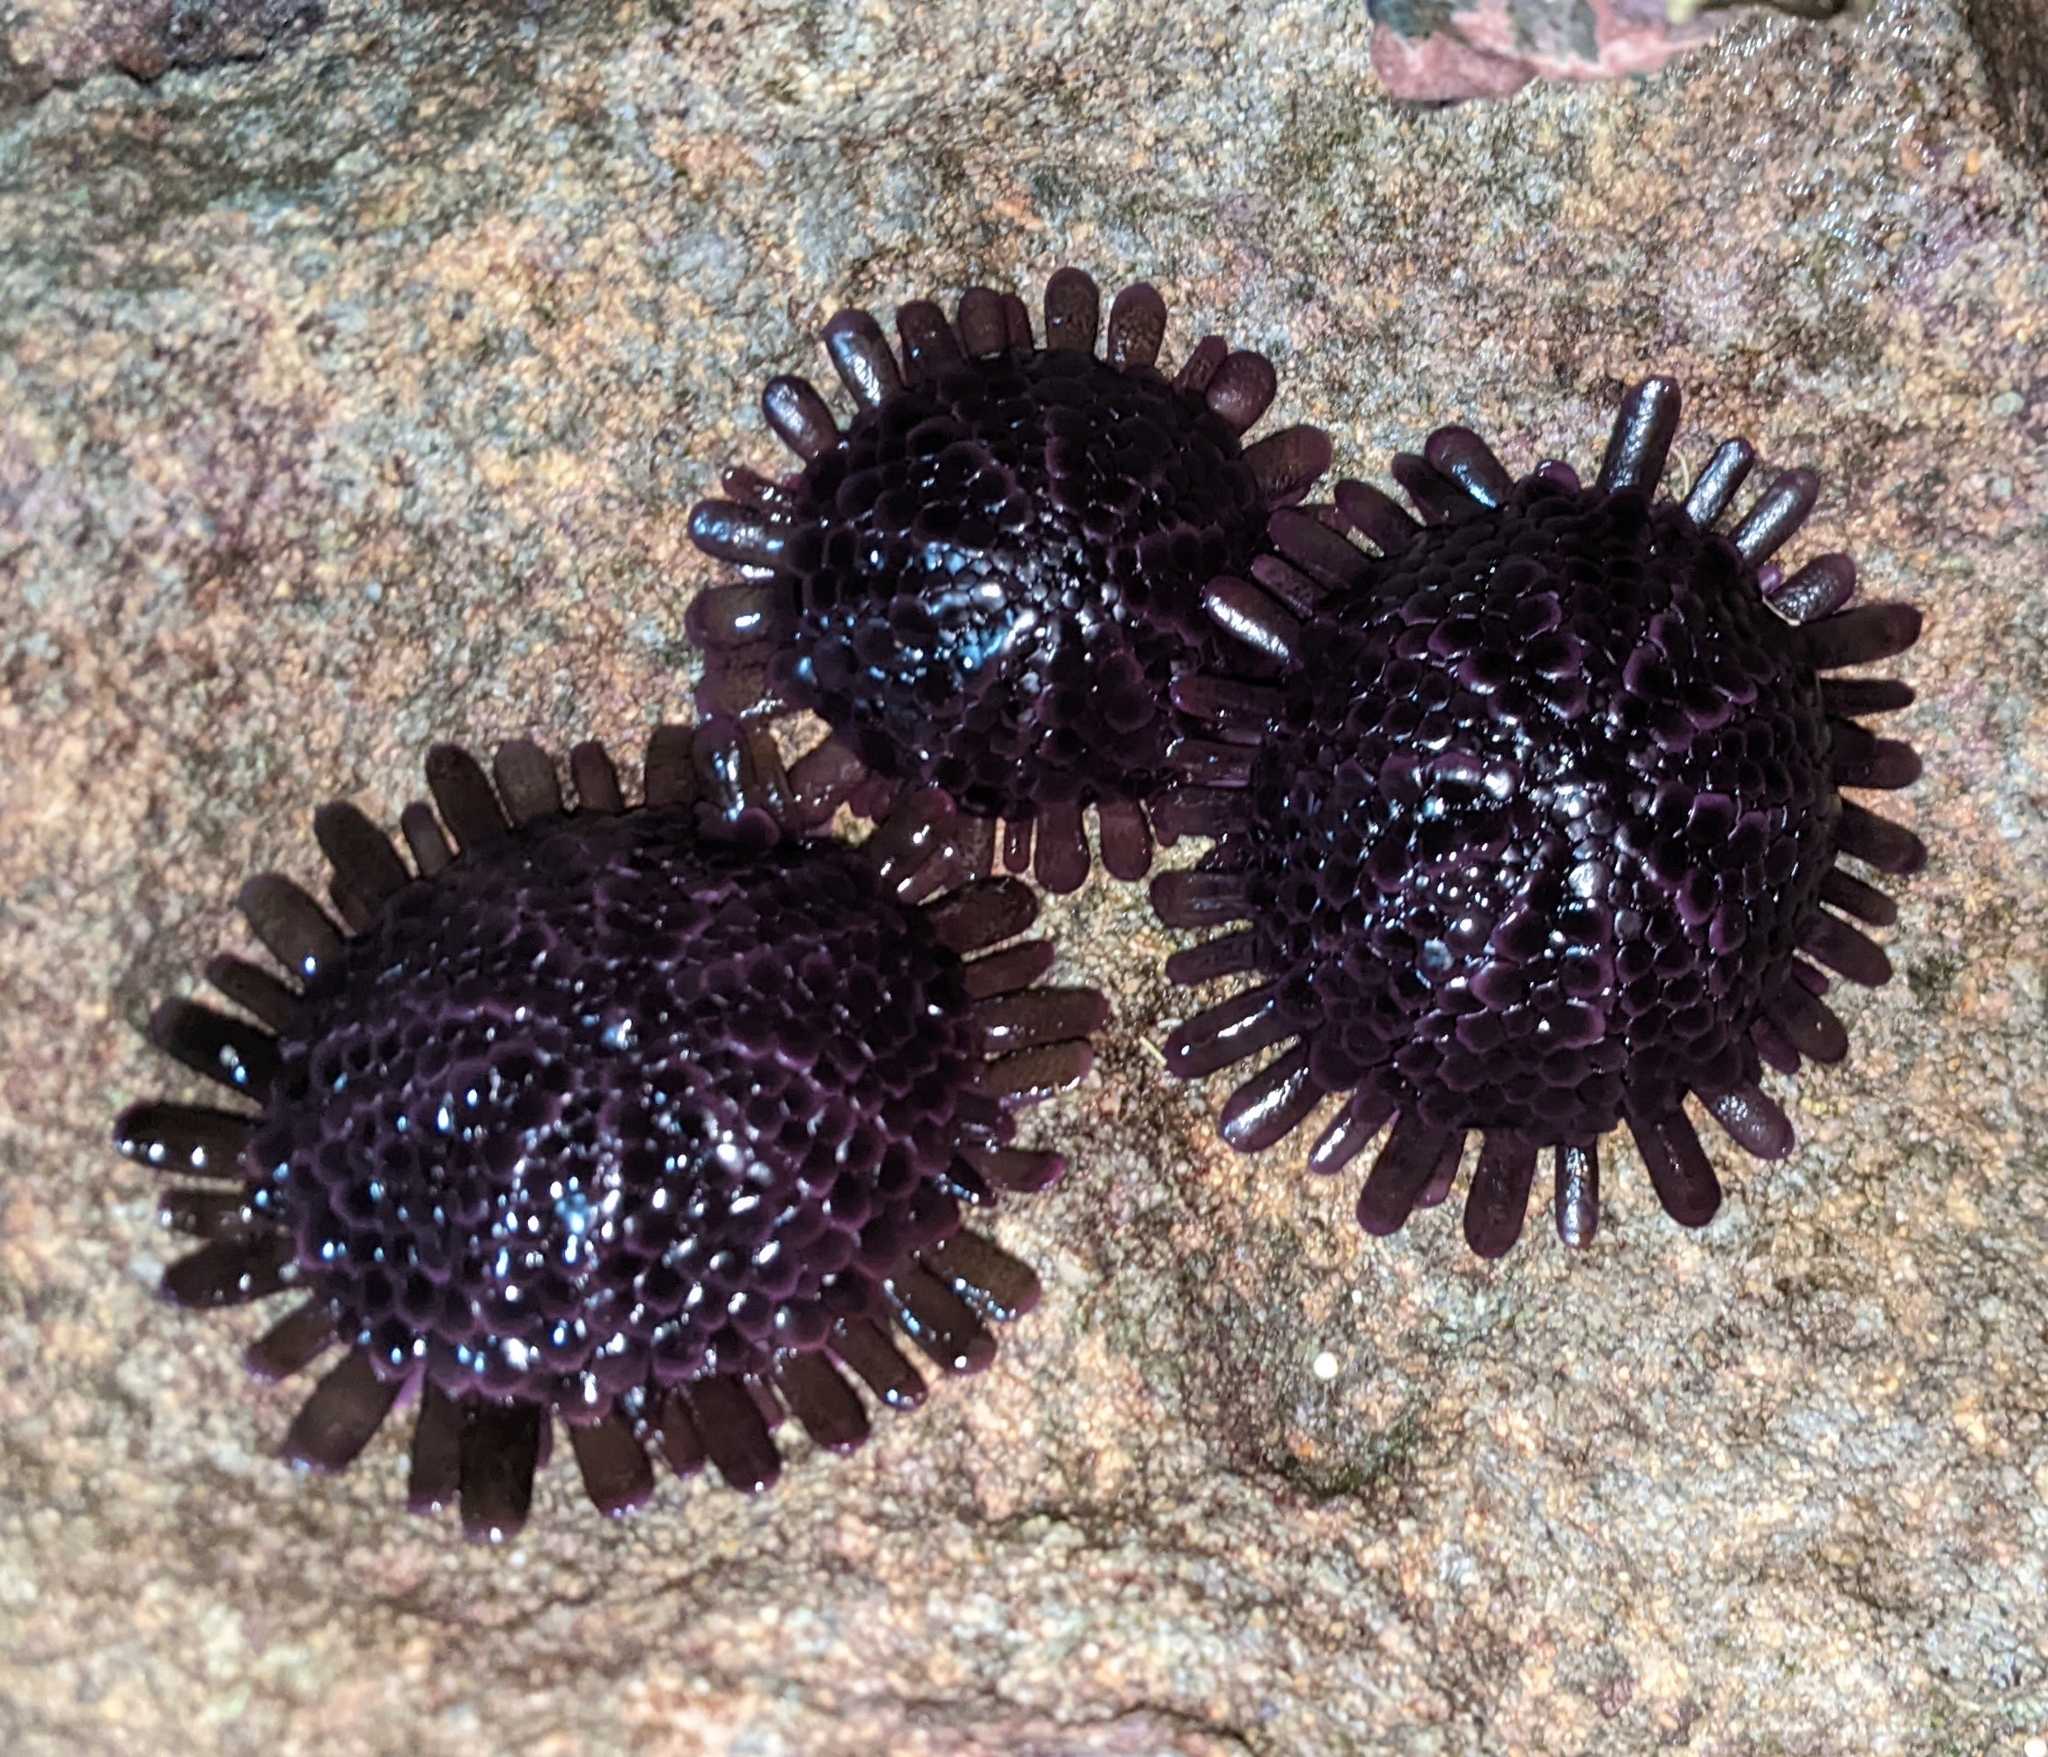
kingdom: Animalia
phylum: Echinodermata
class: Echinoidea
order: Camarodonta
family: Echinometridae
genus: Colobocentrotus
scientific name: Colobocentrotus atratus
